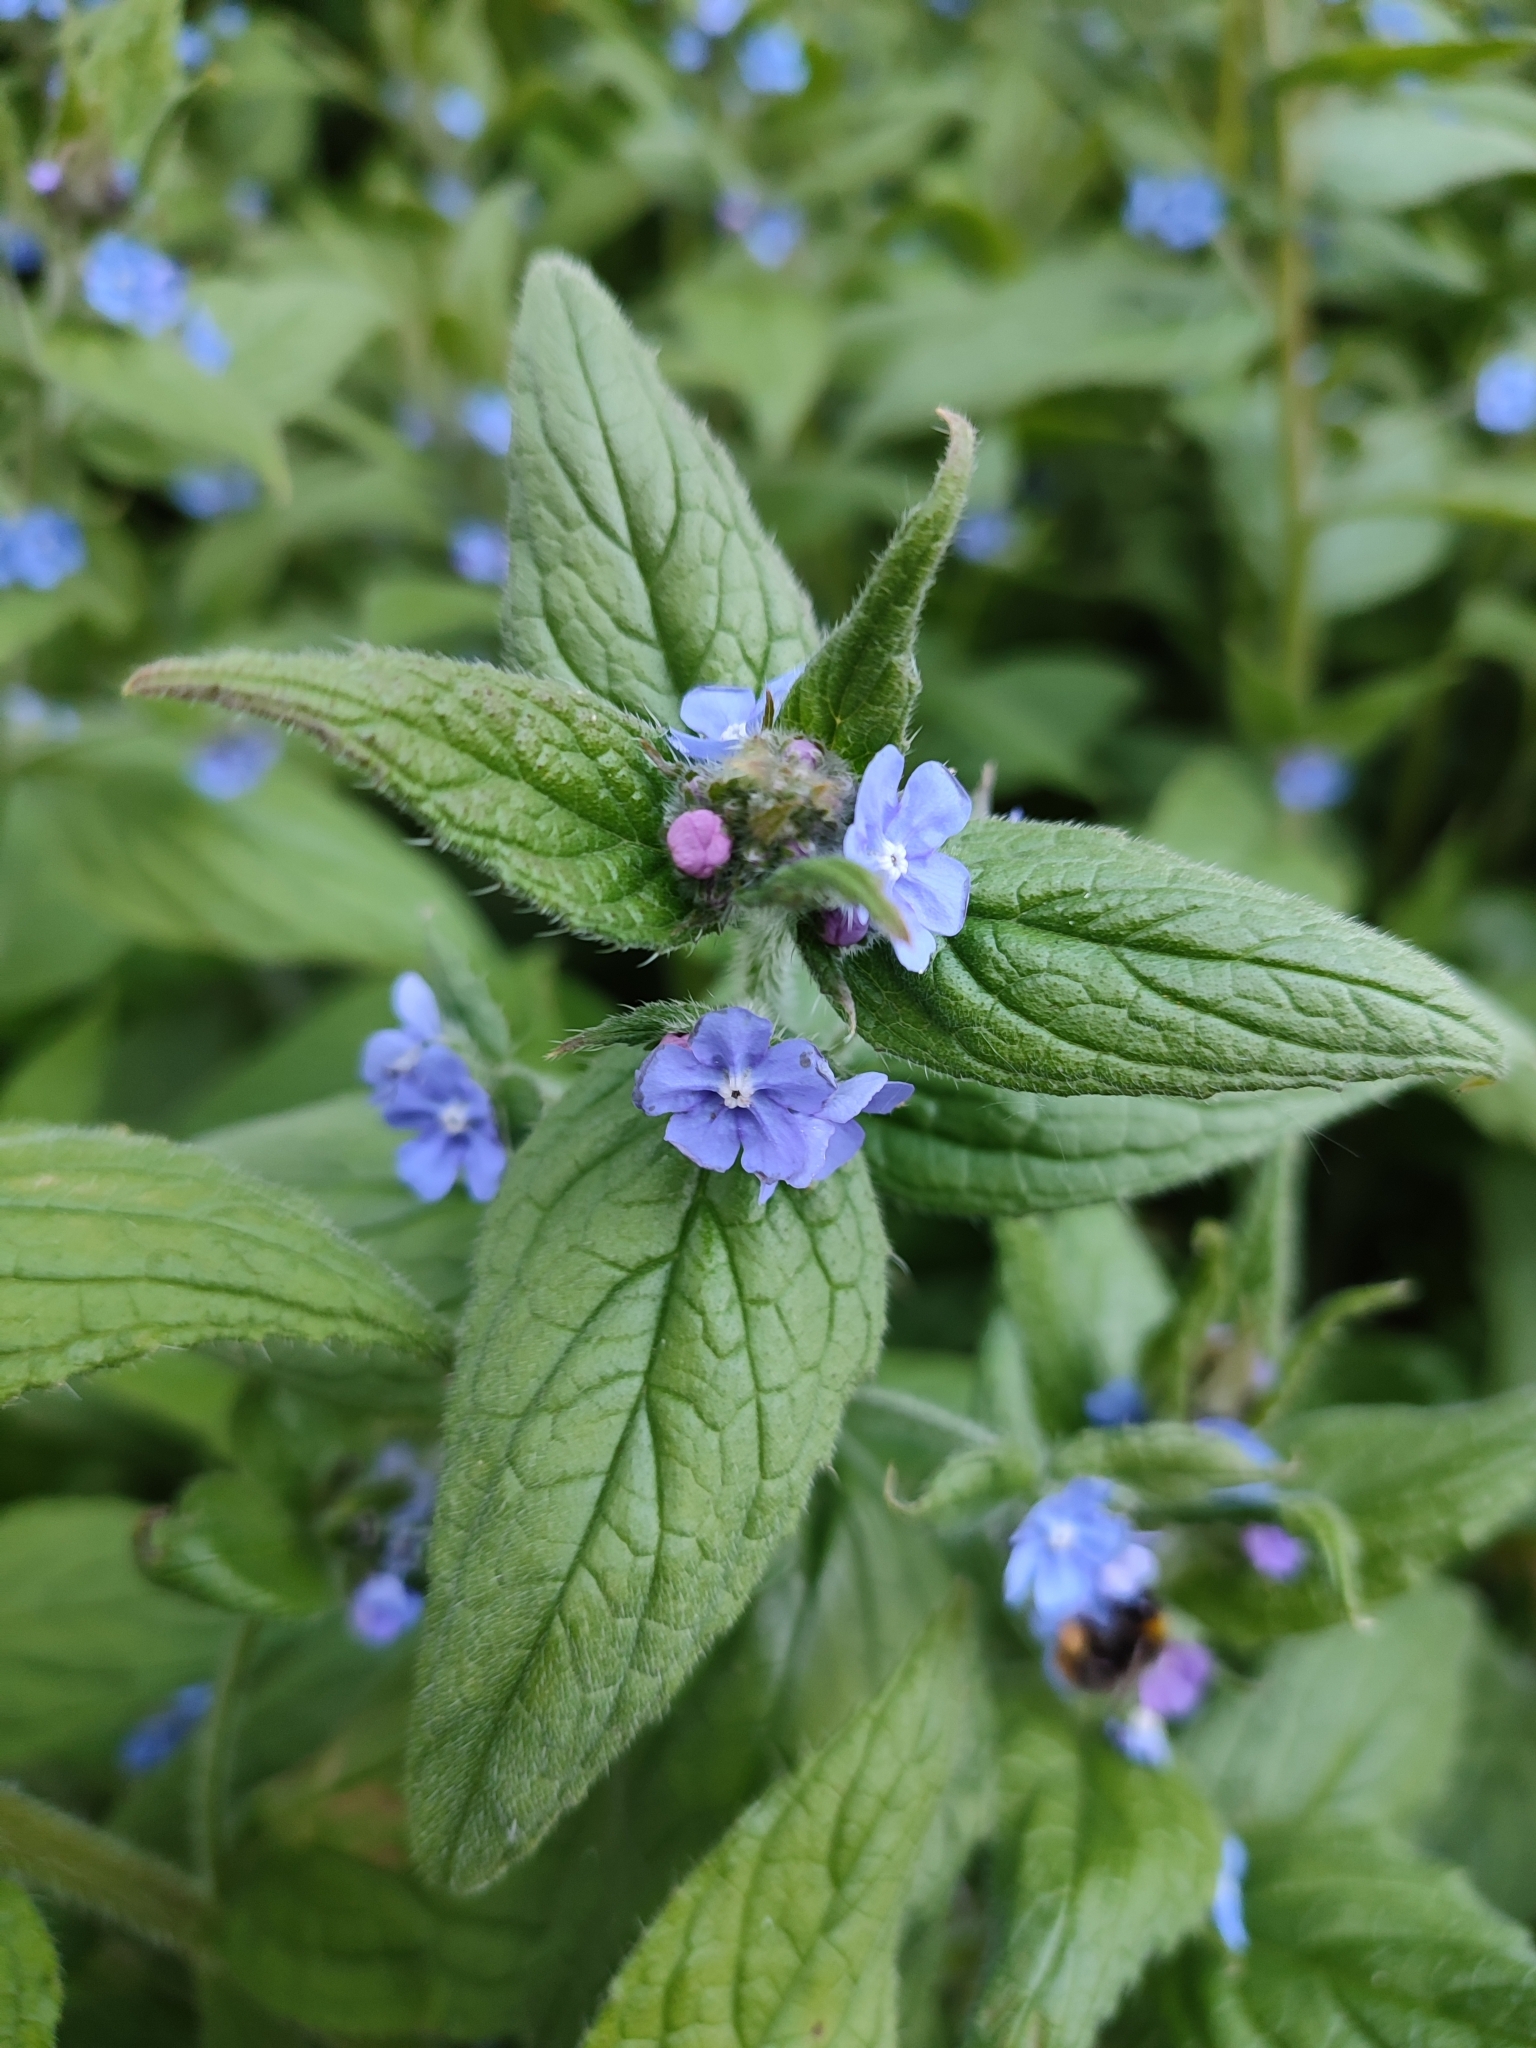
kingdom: Plantae
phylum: Tracheophyta
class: Magnoliopsida
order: Boraginales
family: Boraginaceae
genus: Pentaglottis
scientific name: Pentaglottis sempervirens
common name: Green alkanet
